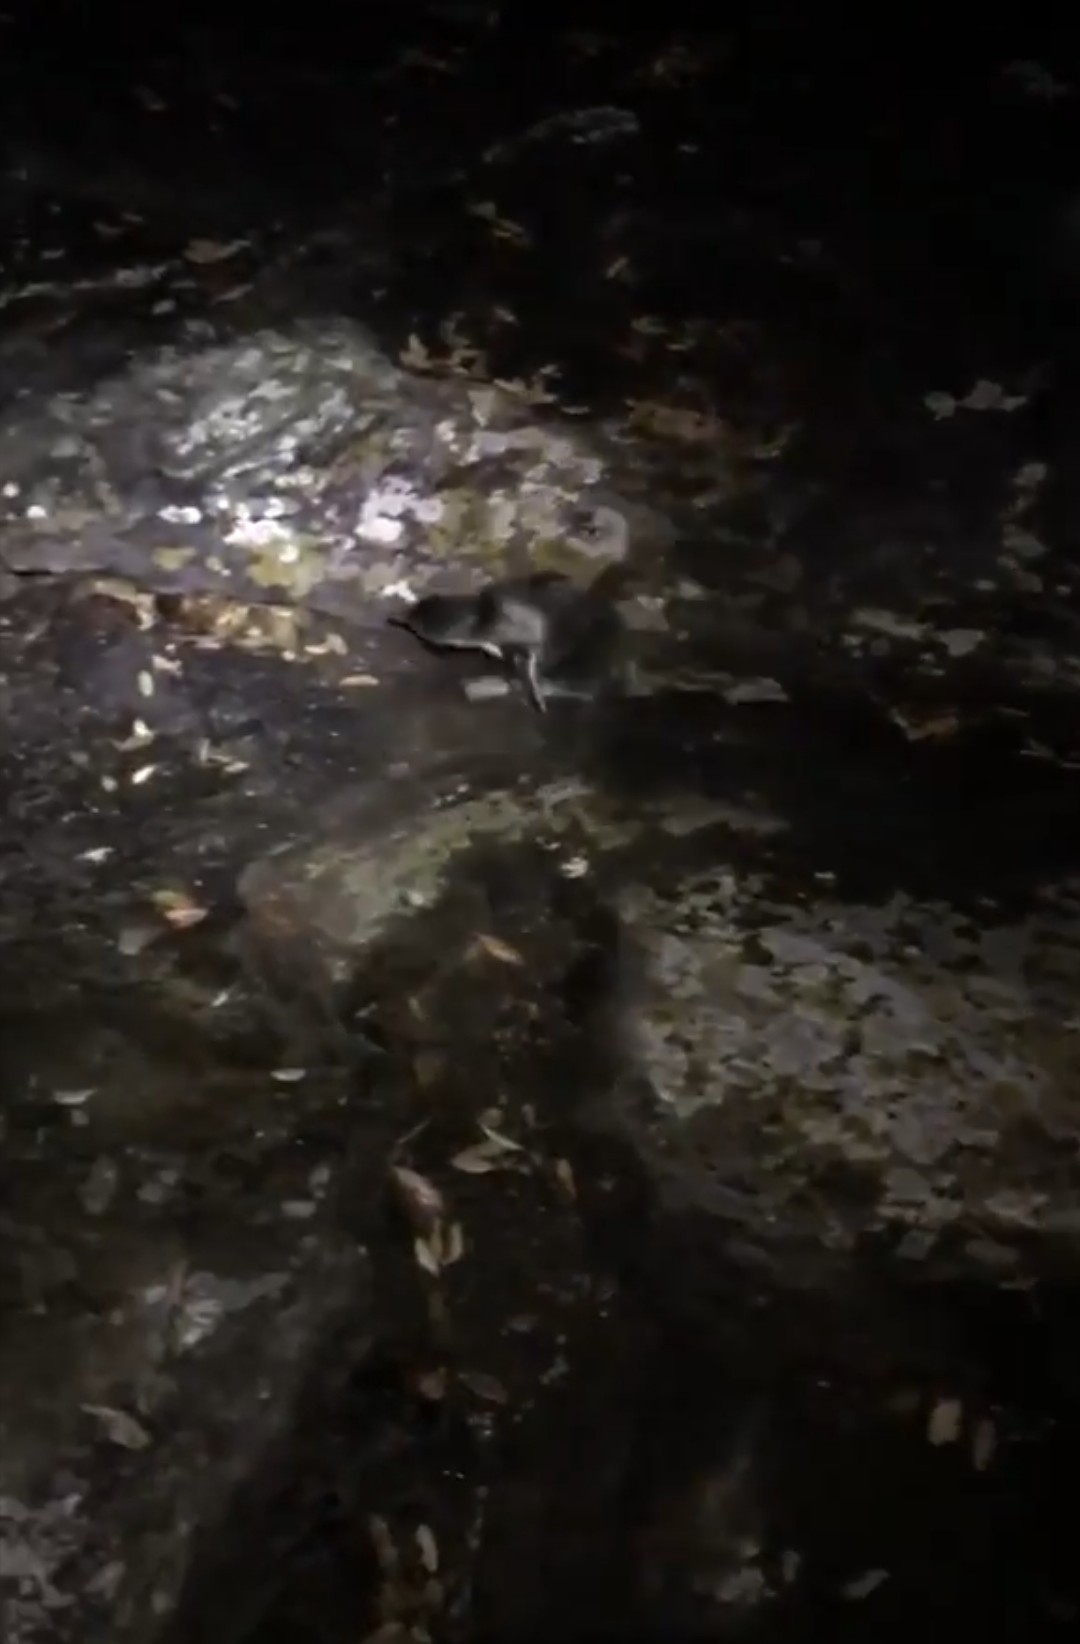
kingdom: Animalia
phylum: Chordata
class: Aves
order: Sphenisciformes
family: Spheniscidae
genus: Eudyptula
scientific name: Eudyptula minor
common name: Little penguin
